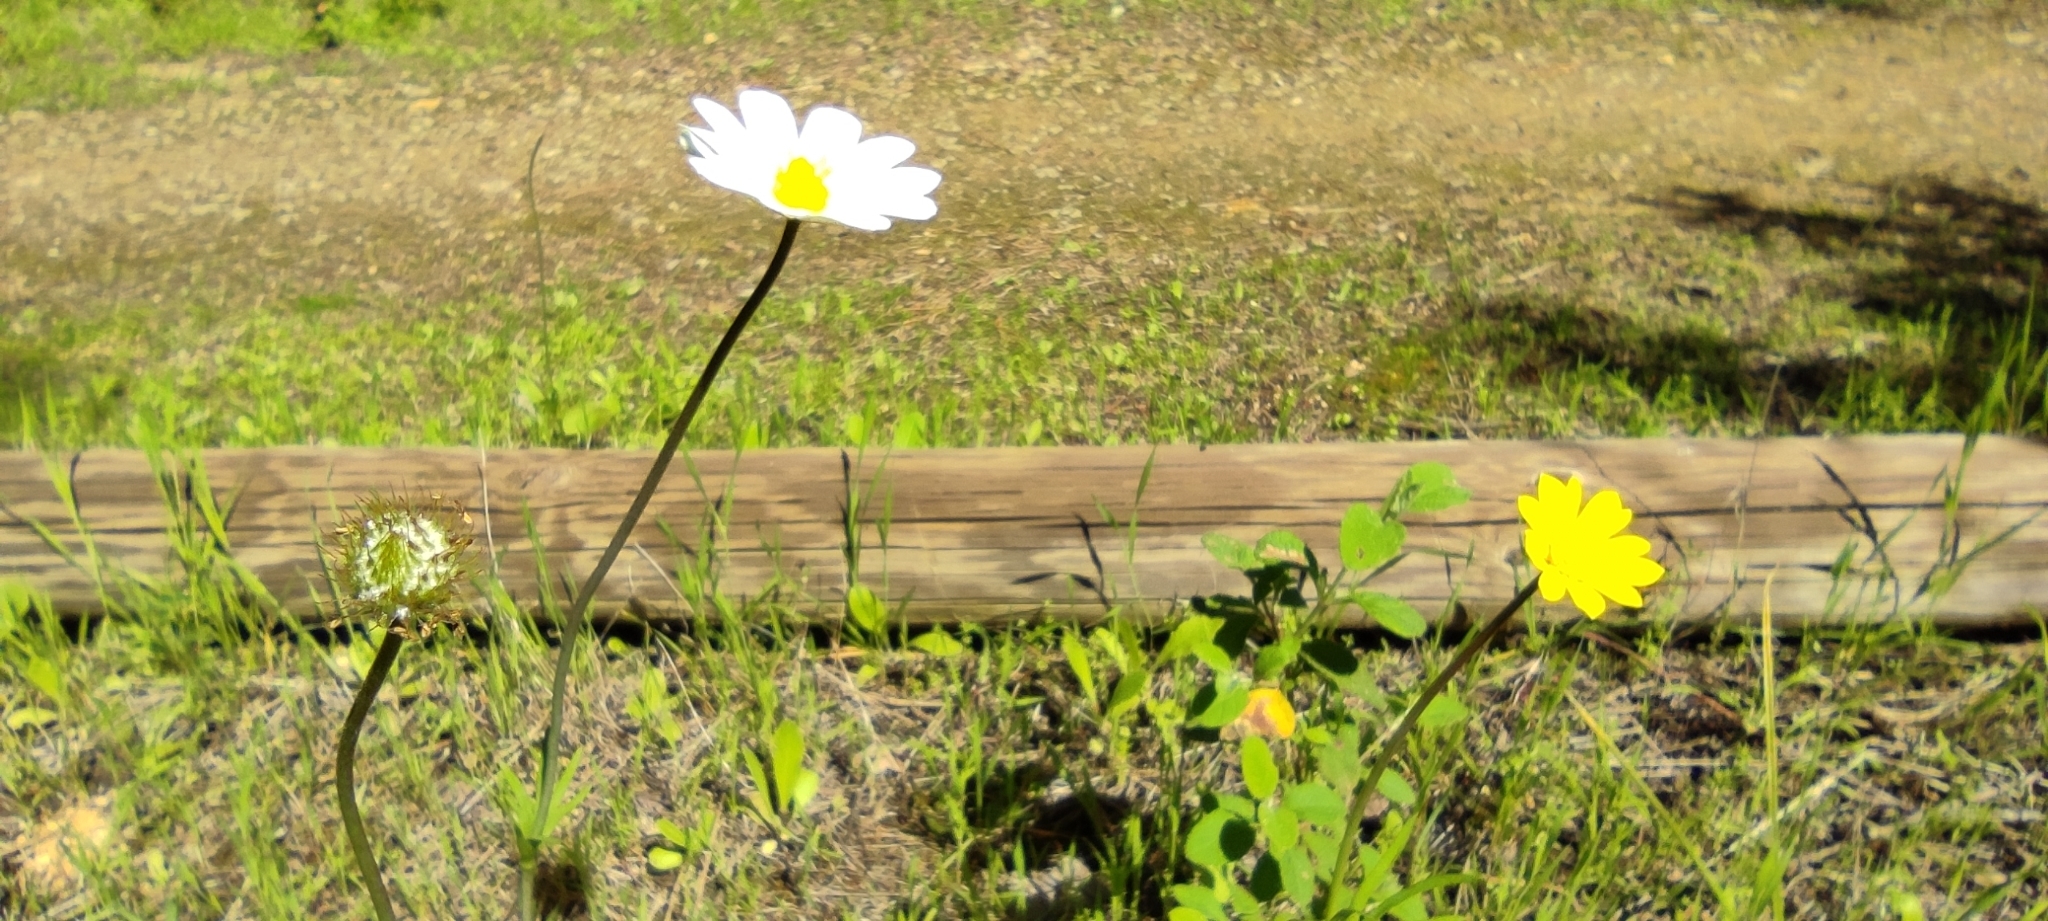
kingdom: Plantae
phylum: Tracheophyta
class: Magnoliopsida
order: Ranunculales
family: Ranunculaceae
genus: Anemone
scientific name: Anemone palmata
